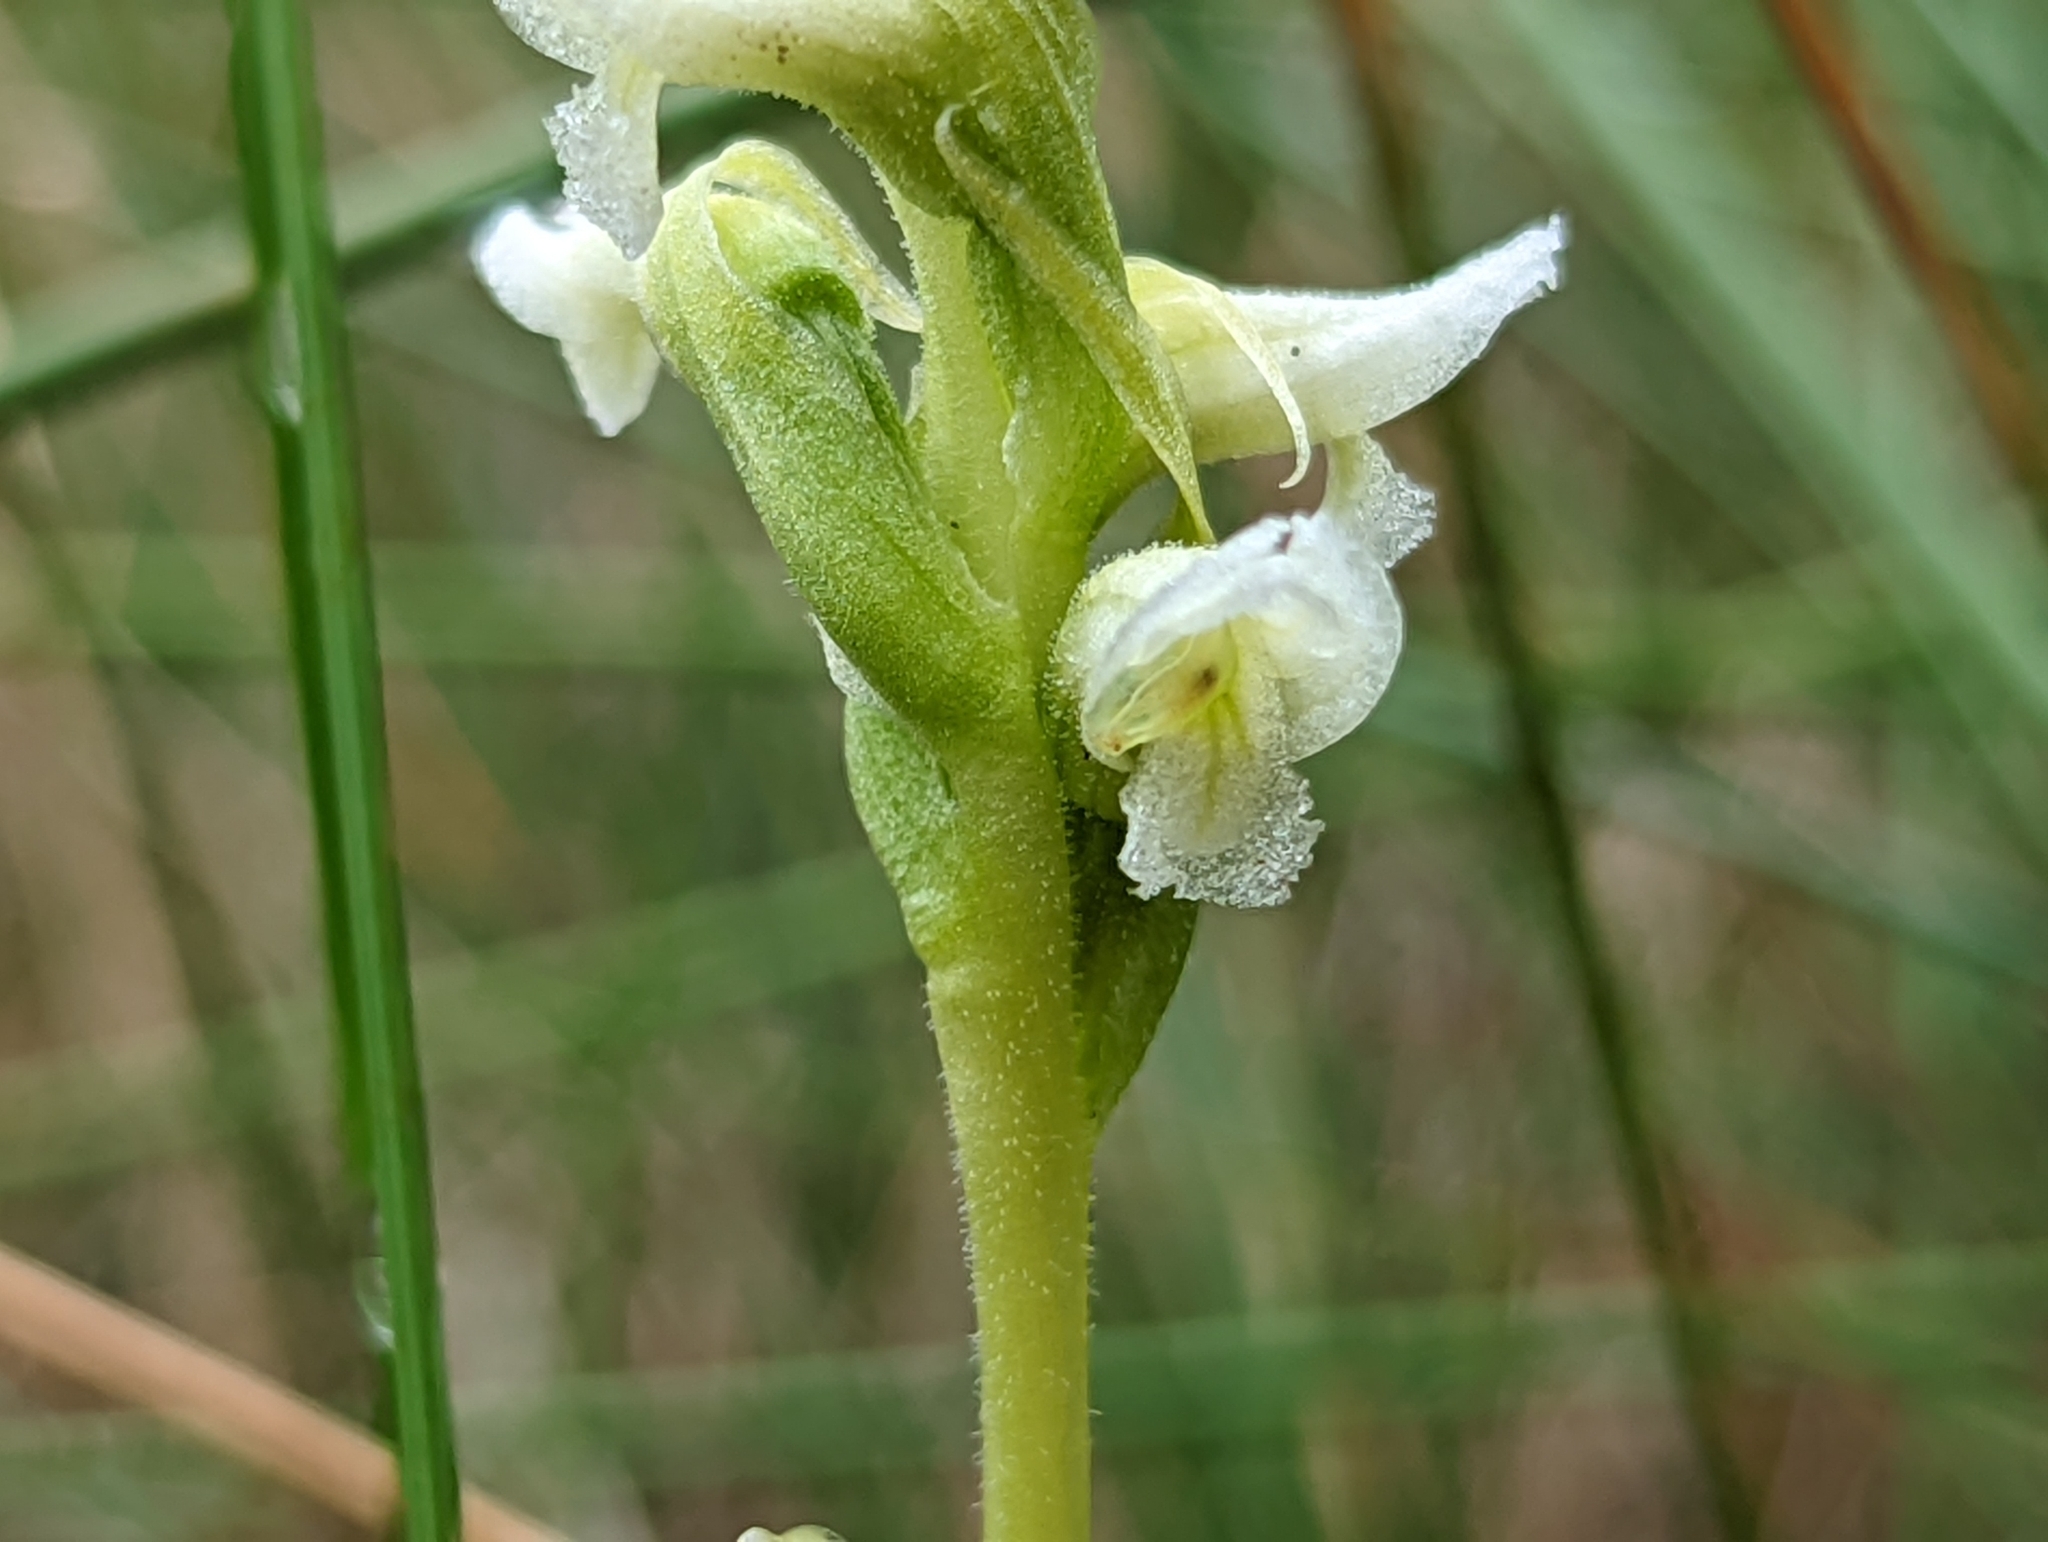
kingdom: Plantae
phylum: Tracheophyta
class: Liliopsida
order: Asparagales
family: Orchidaceae
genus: Spiranthes
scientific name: Spiranthes romanzoffiana
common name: Irish lady's-tresses
